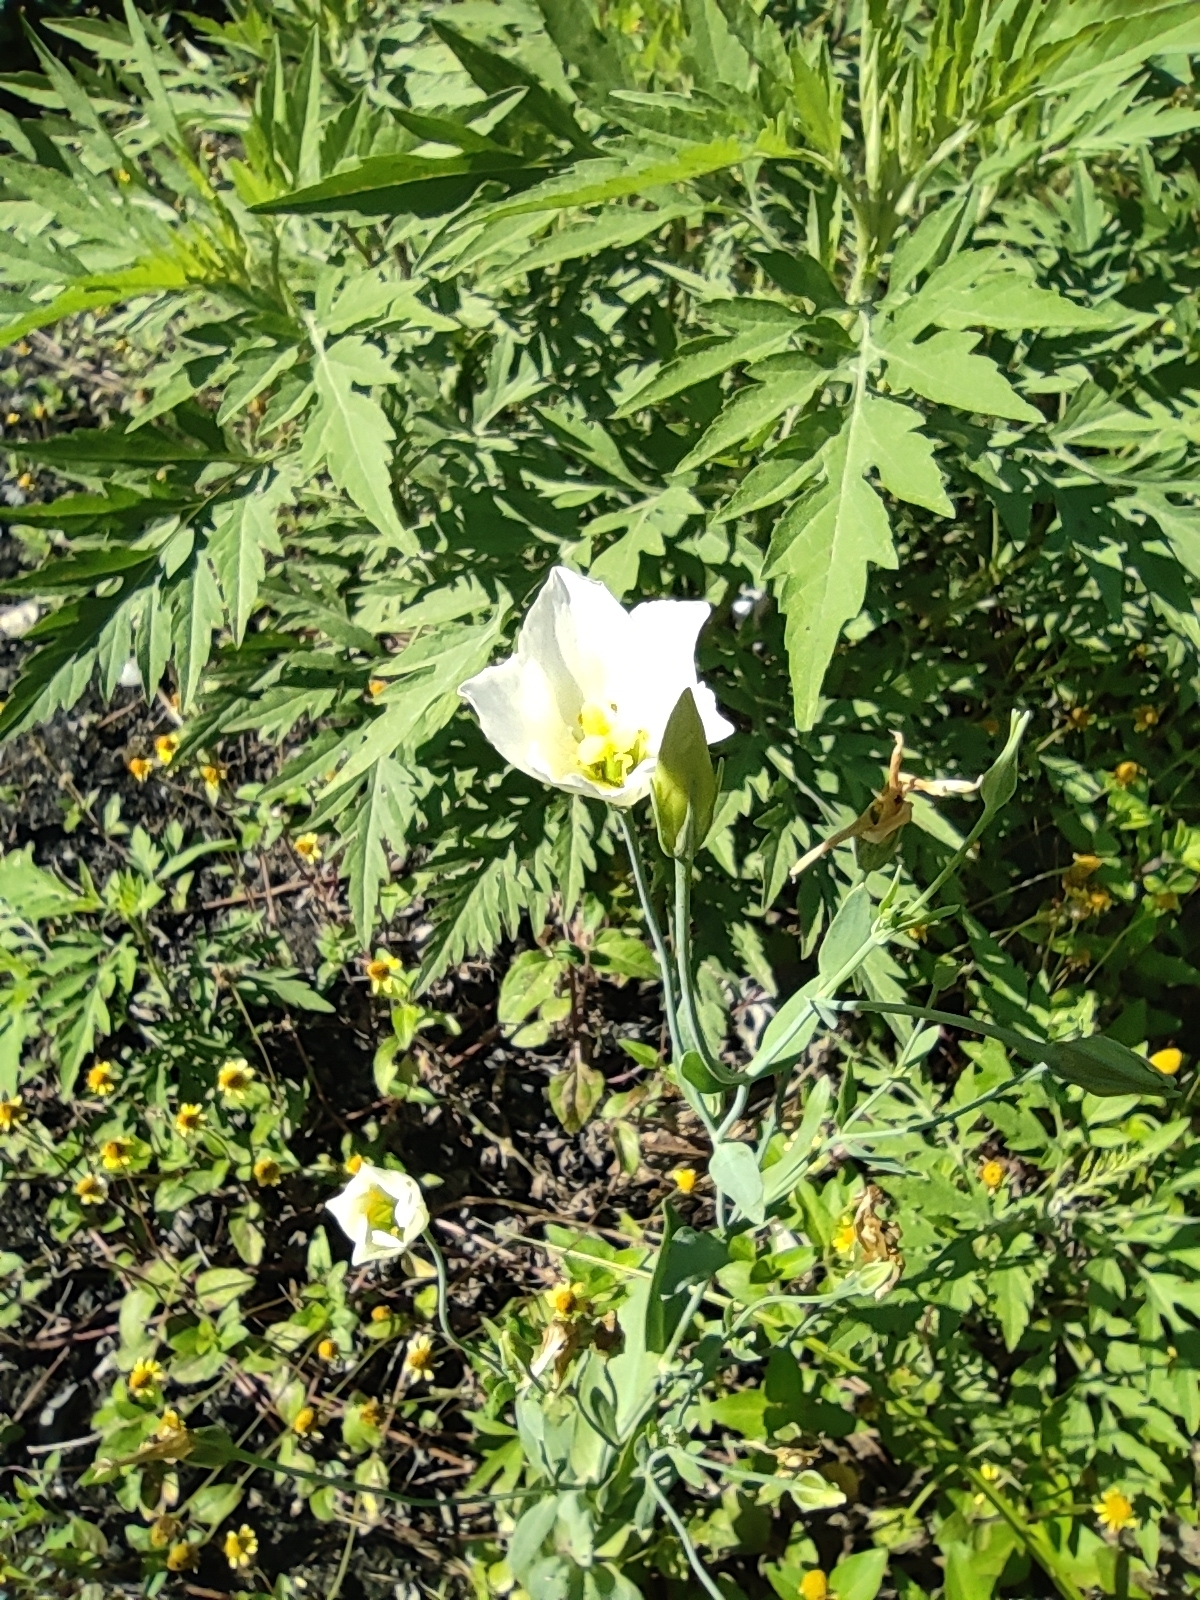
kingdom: Plantae
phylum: Tracheophyta
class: Magnoliopsida
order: Gentianales
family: Gentianaceae
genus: Eustoma
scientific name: Eustoma exaltatum
